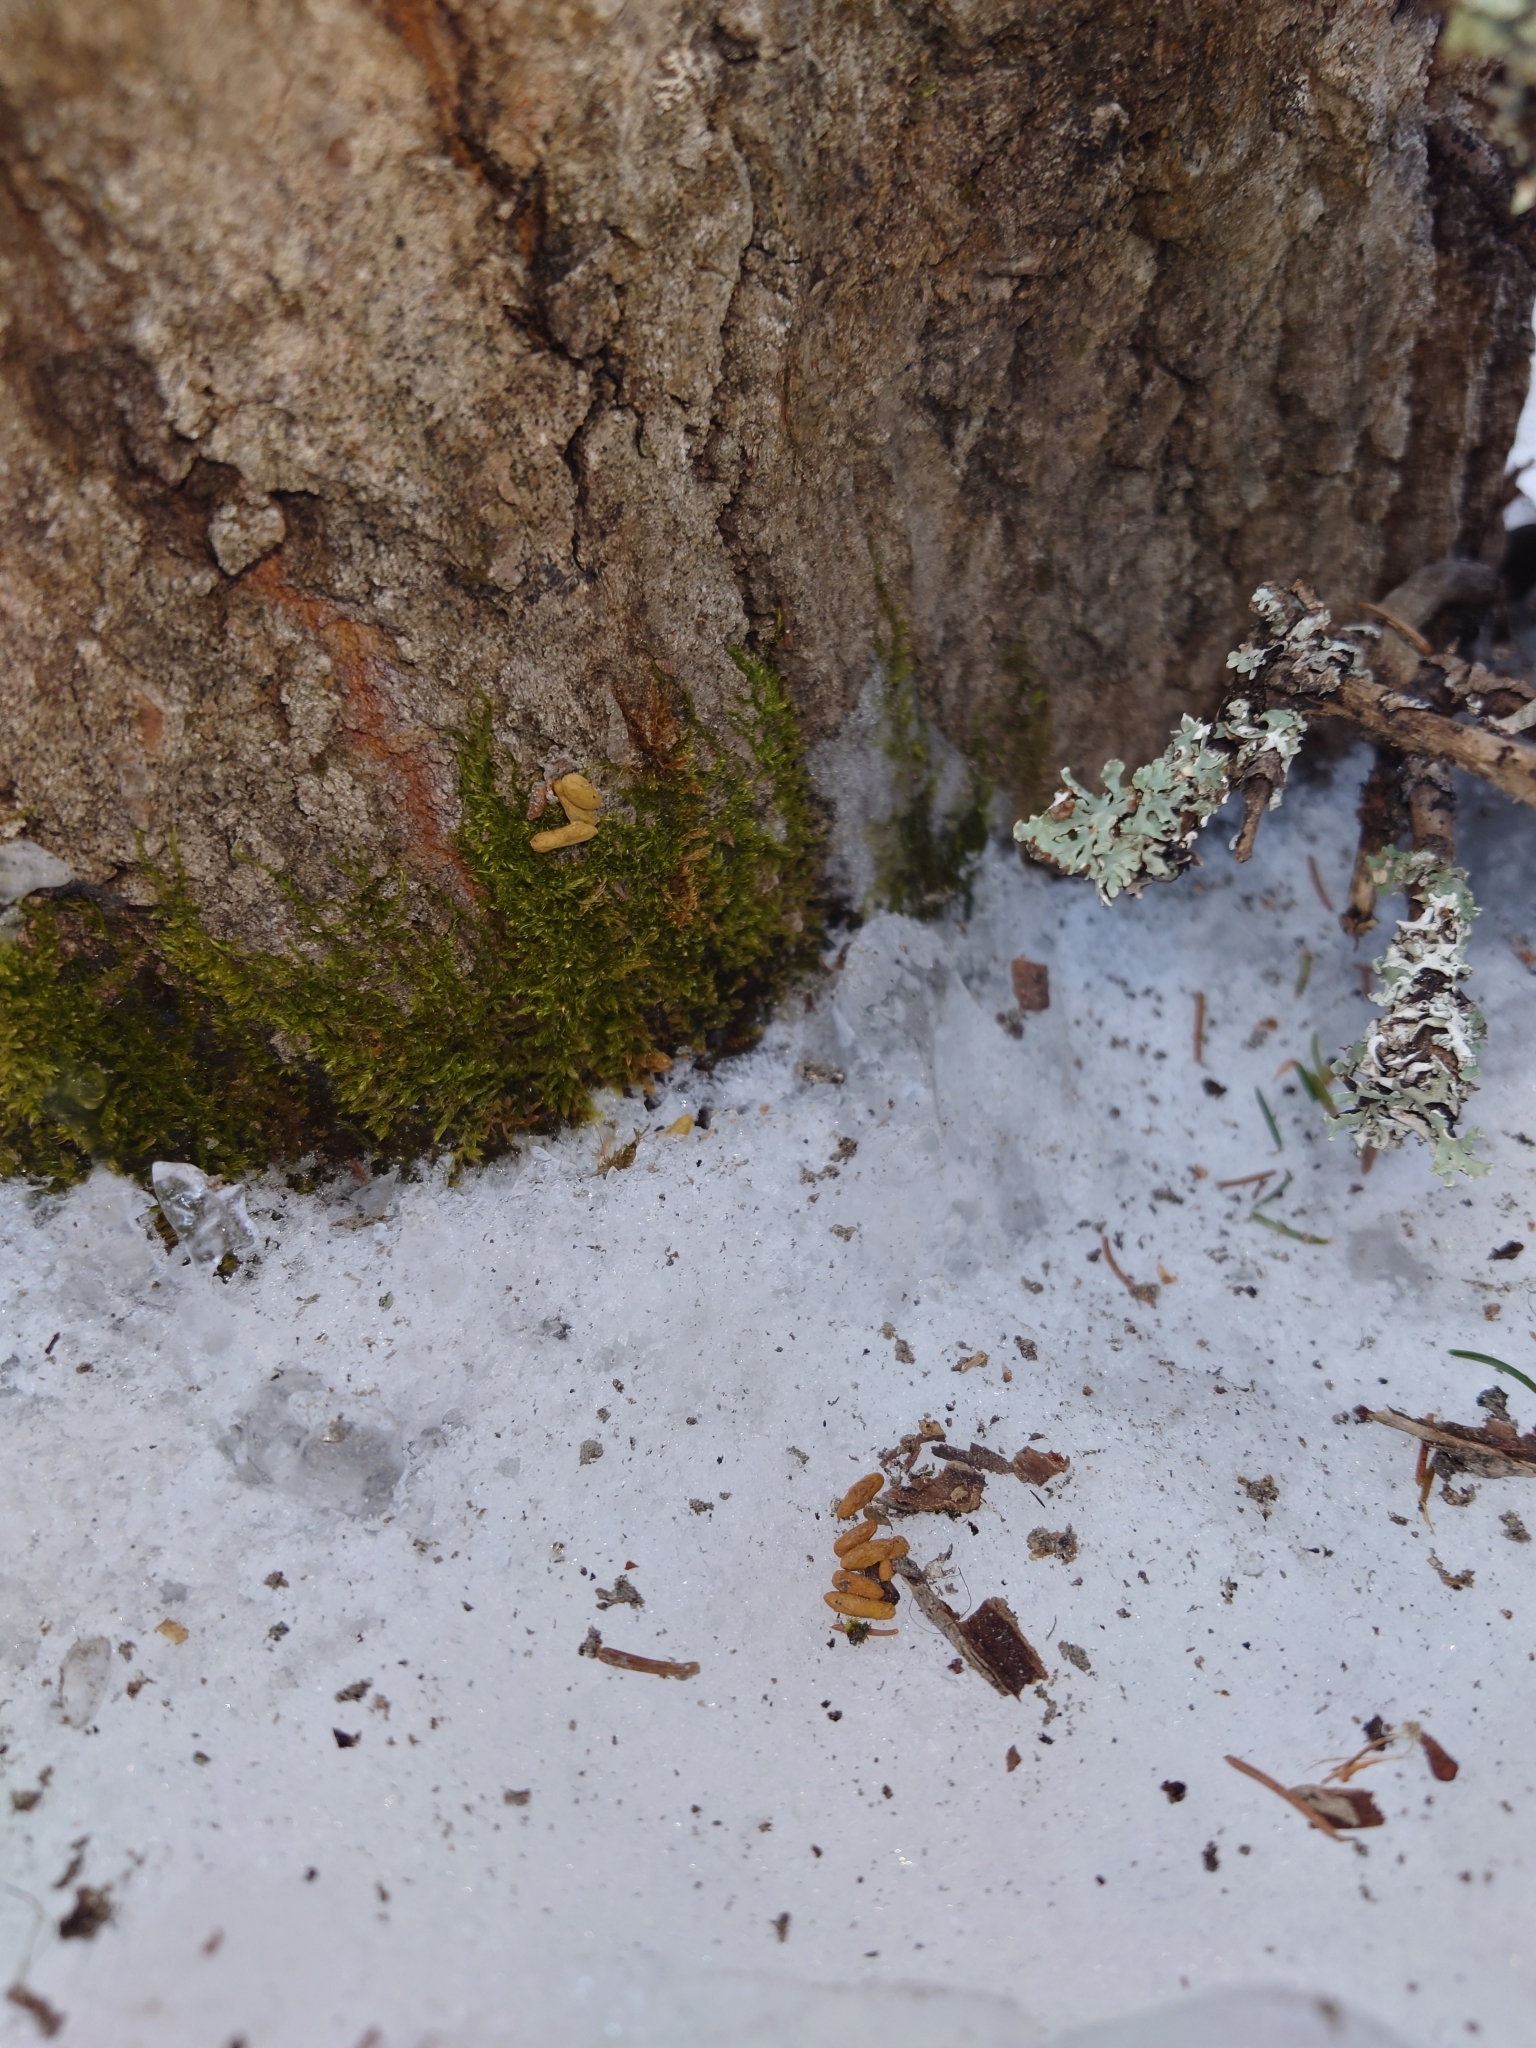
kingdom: Animalia
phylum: Chordata
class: Mammalia
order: Rodentia
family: Sciuridae
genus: Pteromys
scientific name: Pteromys volans
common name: Siberian flying squirrel
